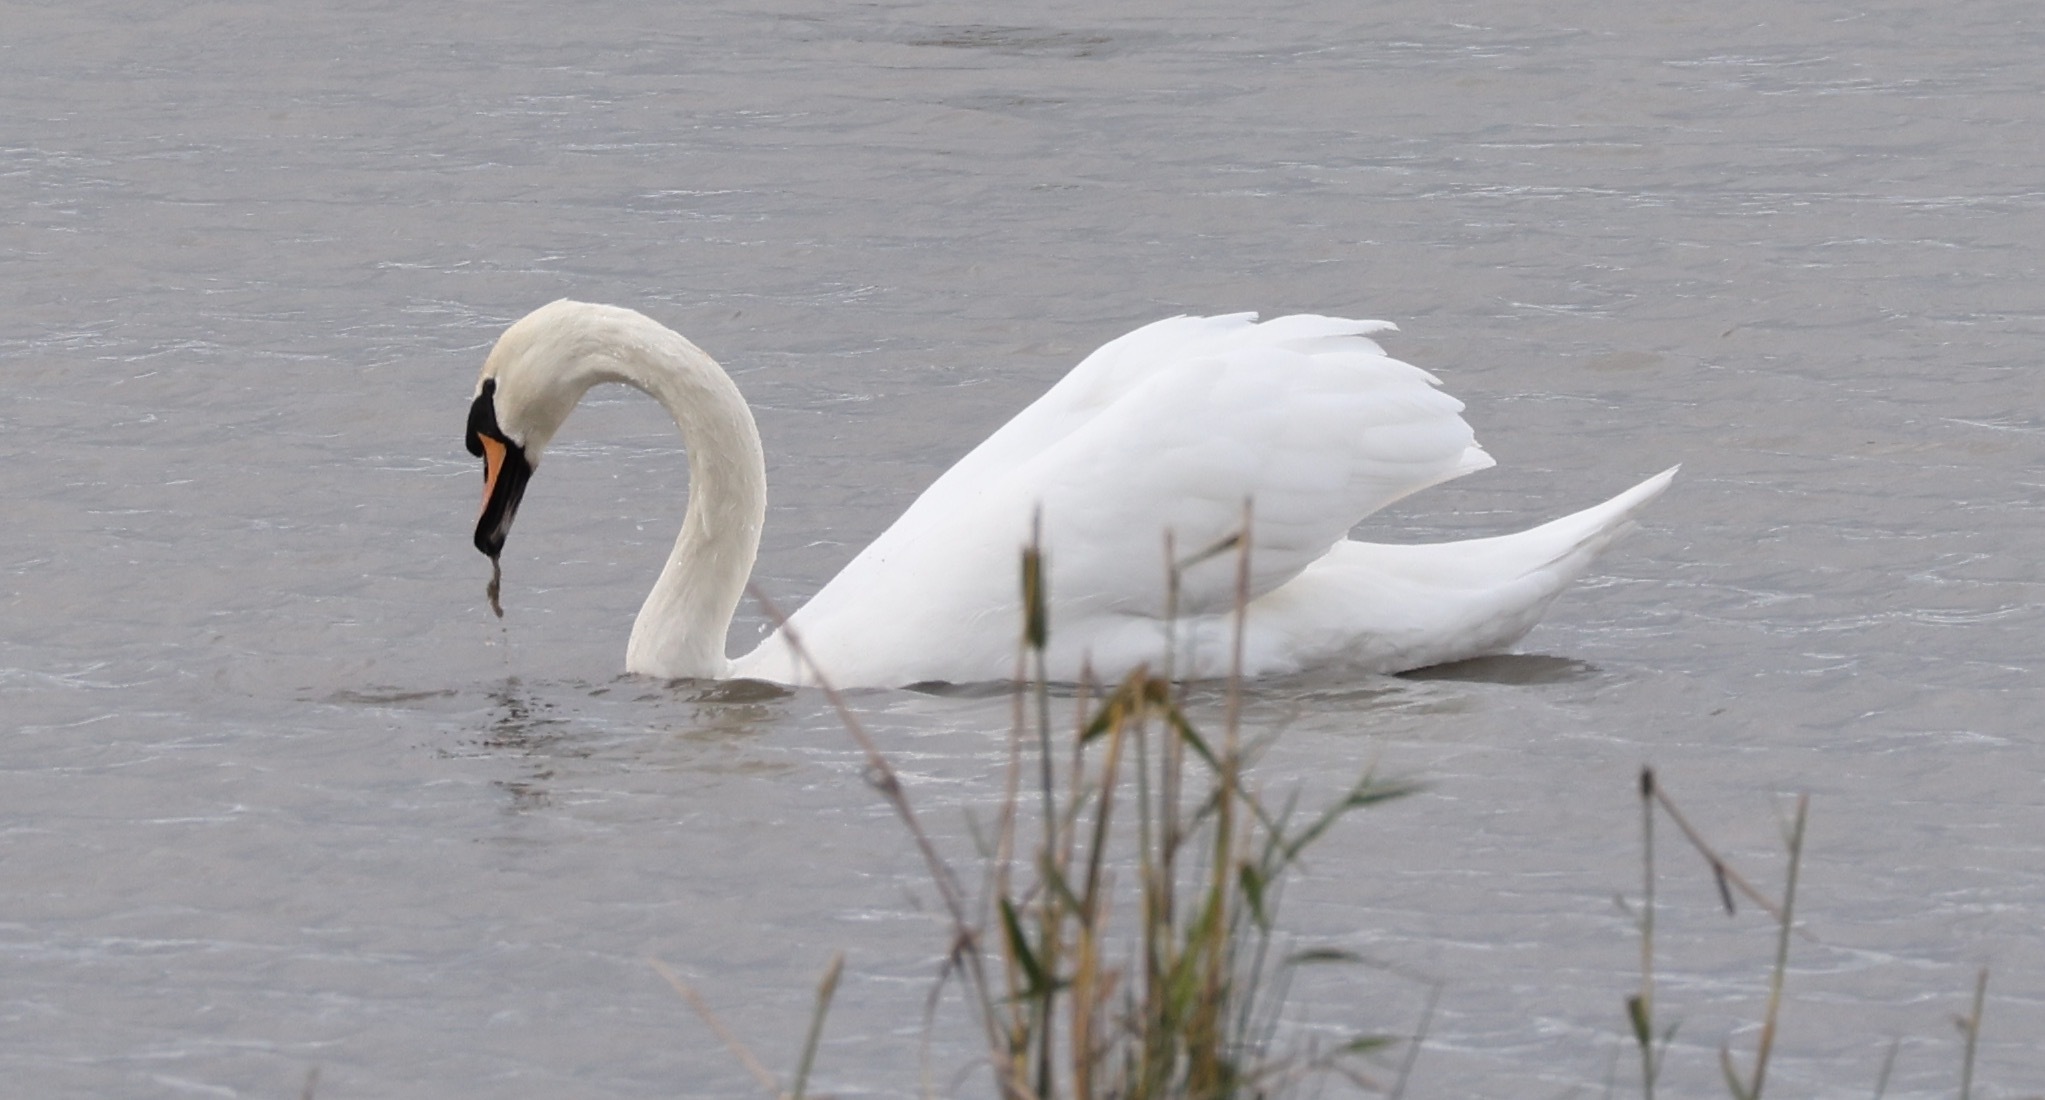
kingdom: Animalia
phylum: Chordata
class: Aves
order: Anseriformes
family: Anatidae
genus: Cygnus
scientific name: Cygnus olor
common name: Mute swan
